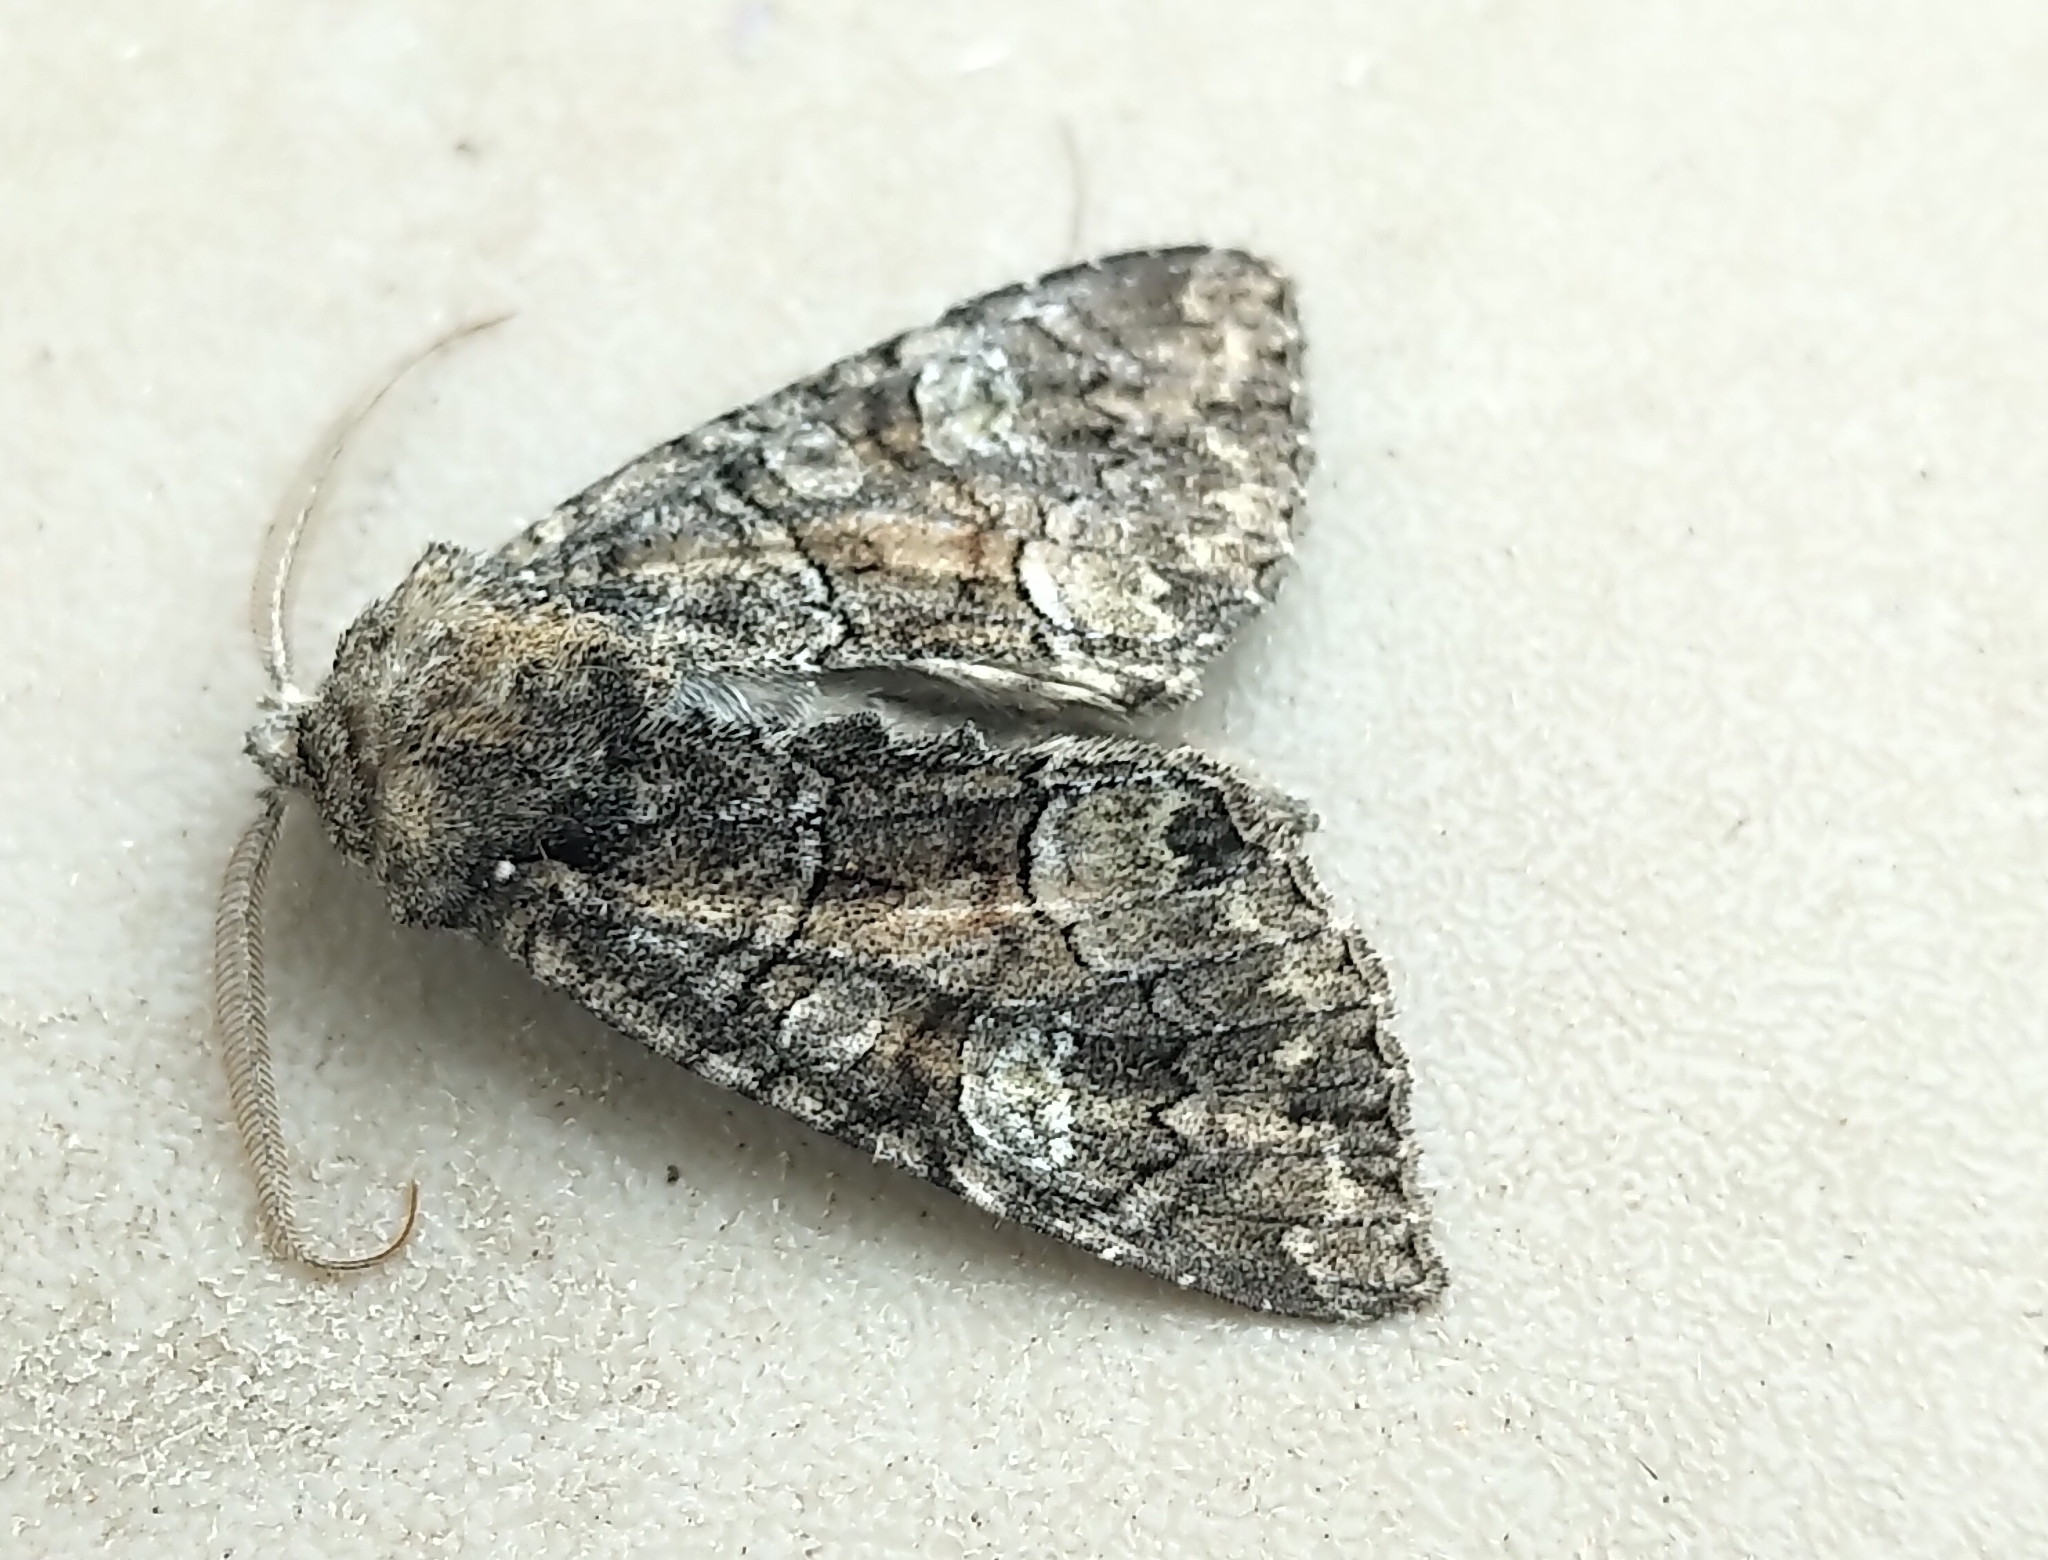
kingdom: Animalia
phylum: Arthropoda
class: Insecta
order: Lepidoptera
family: Noctuidae
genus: Fishia
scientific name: Fishia illocata
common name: Wandering brocade moth
